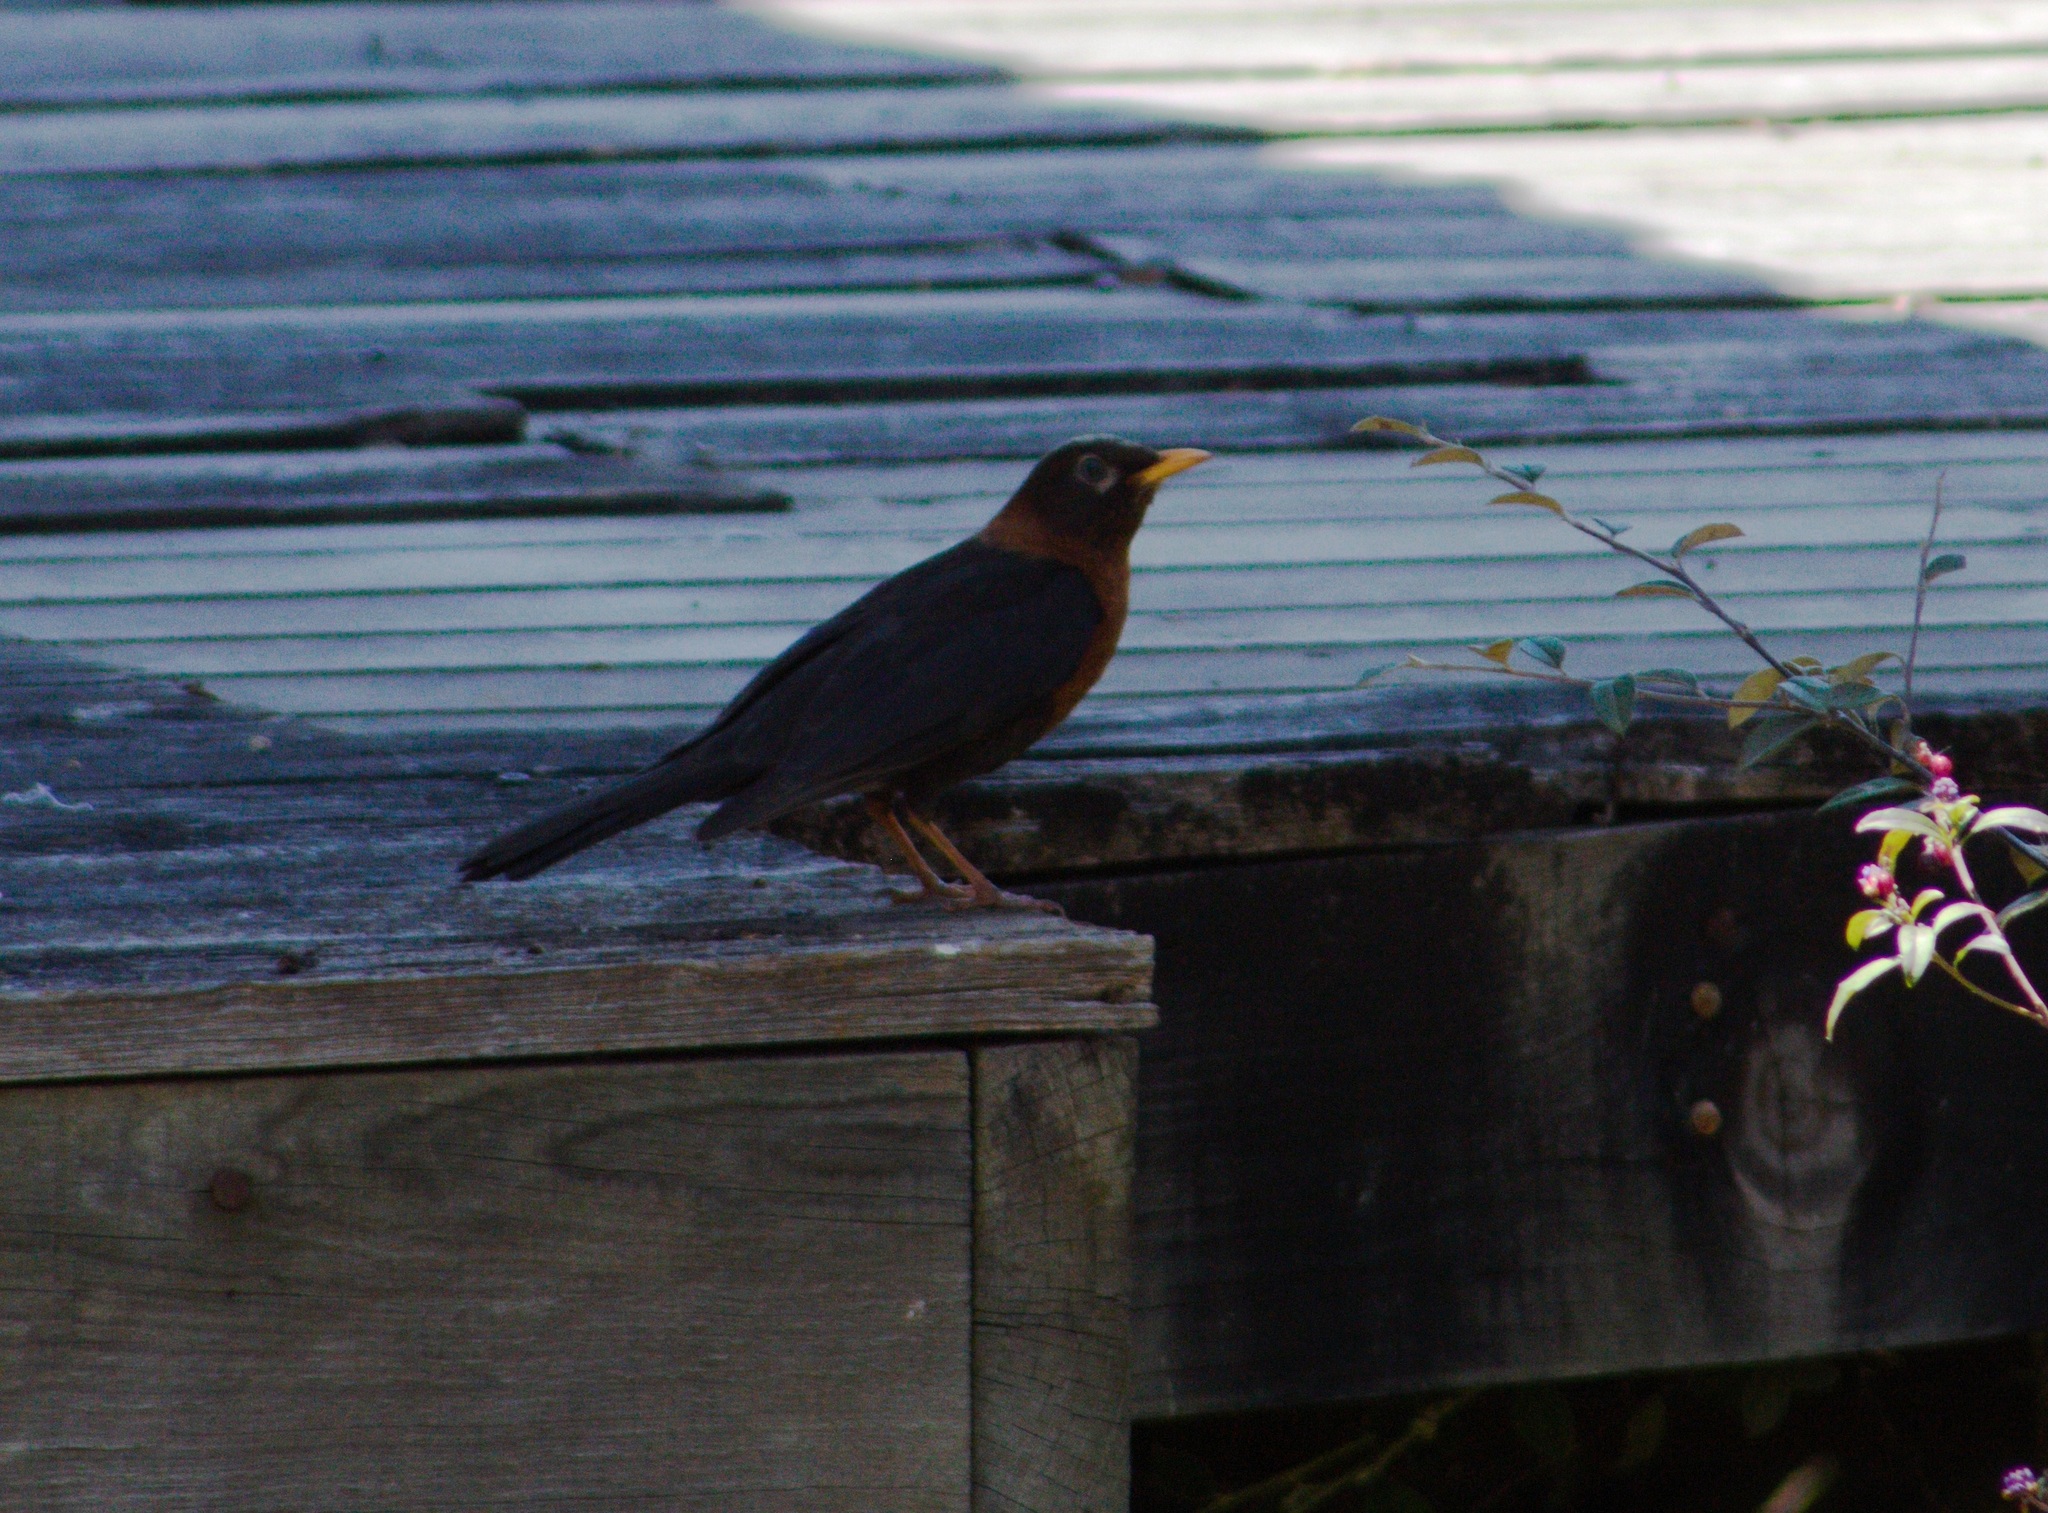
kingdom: Animalia
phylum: Chordata
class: Aves
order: Passeriformes
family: Turdidae
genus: Turdus
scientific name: Turdus rufitorques
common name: Rufous-collared thrush
